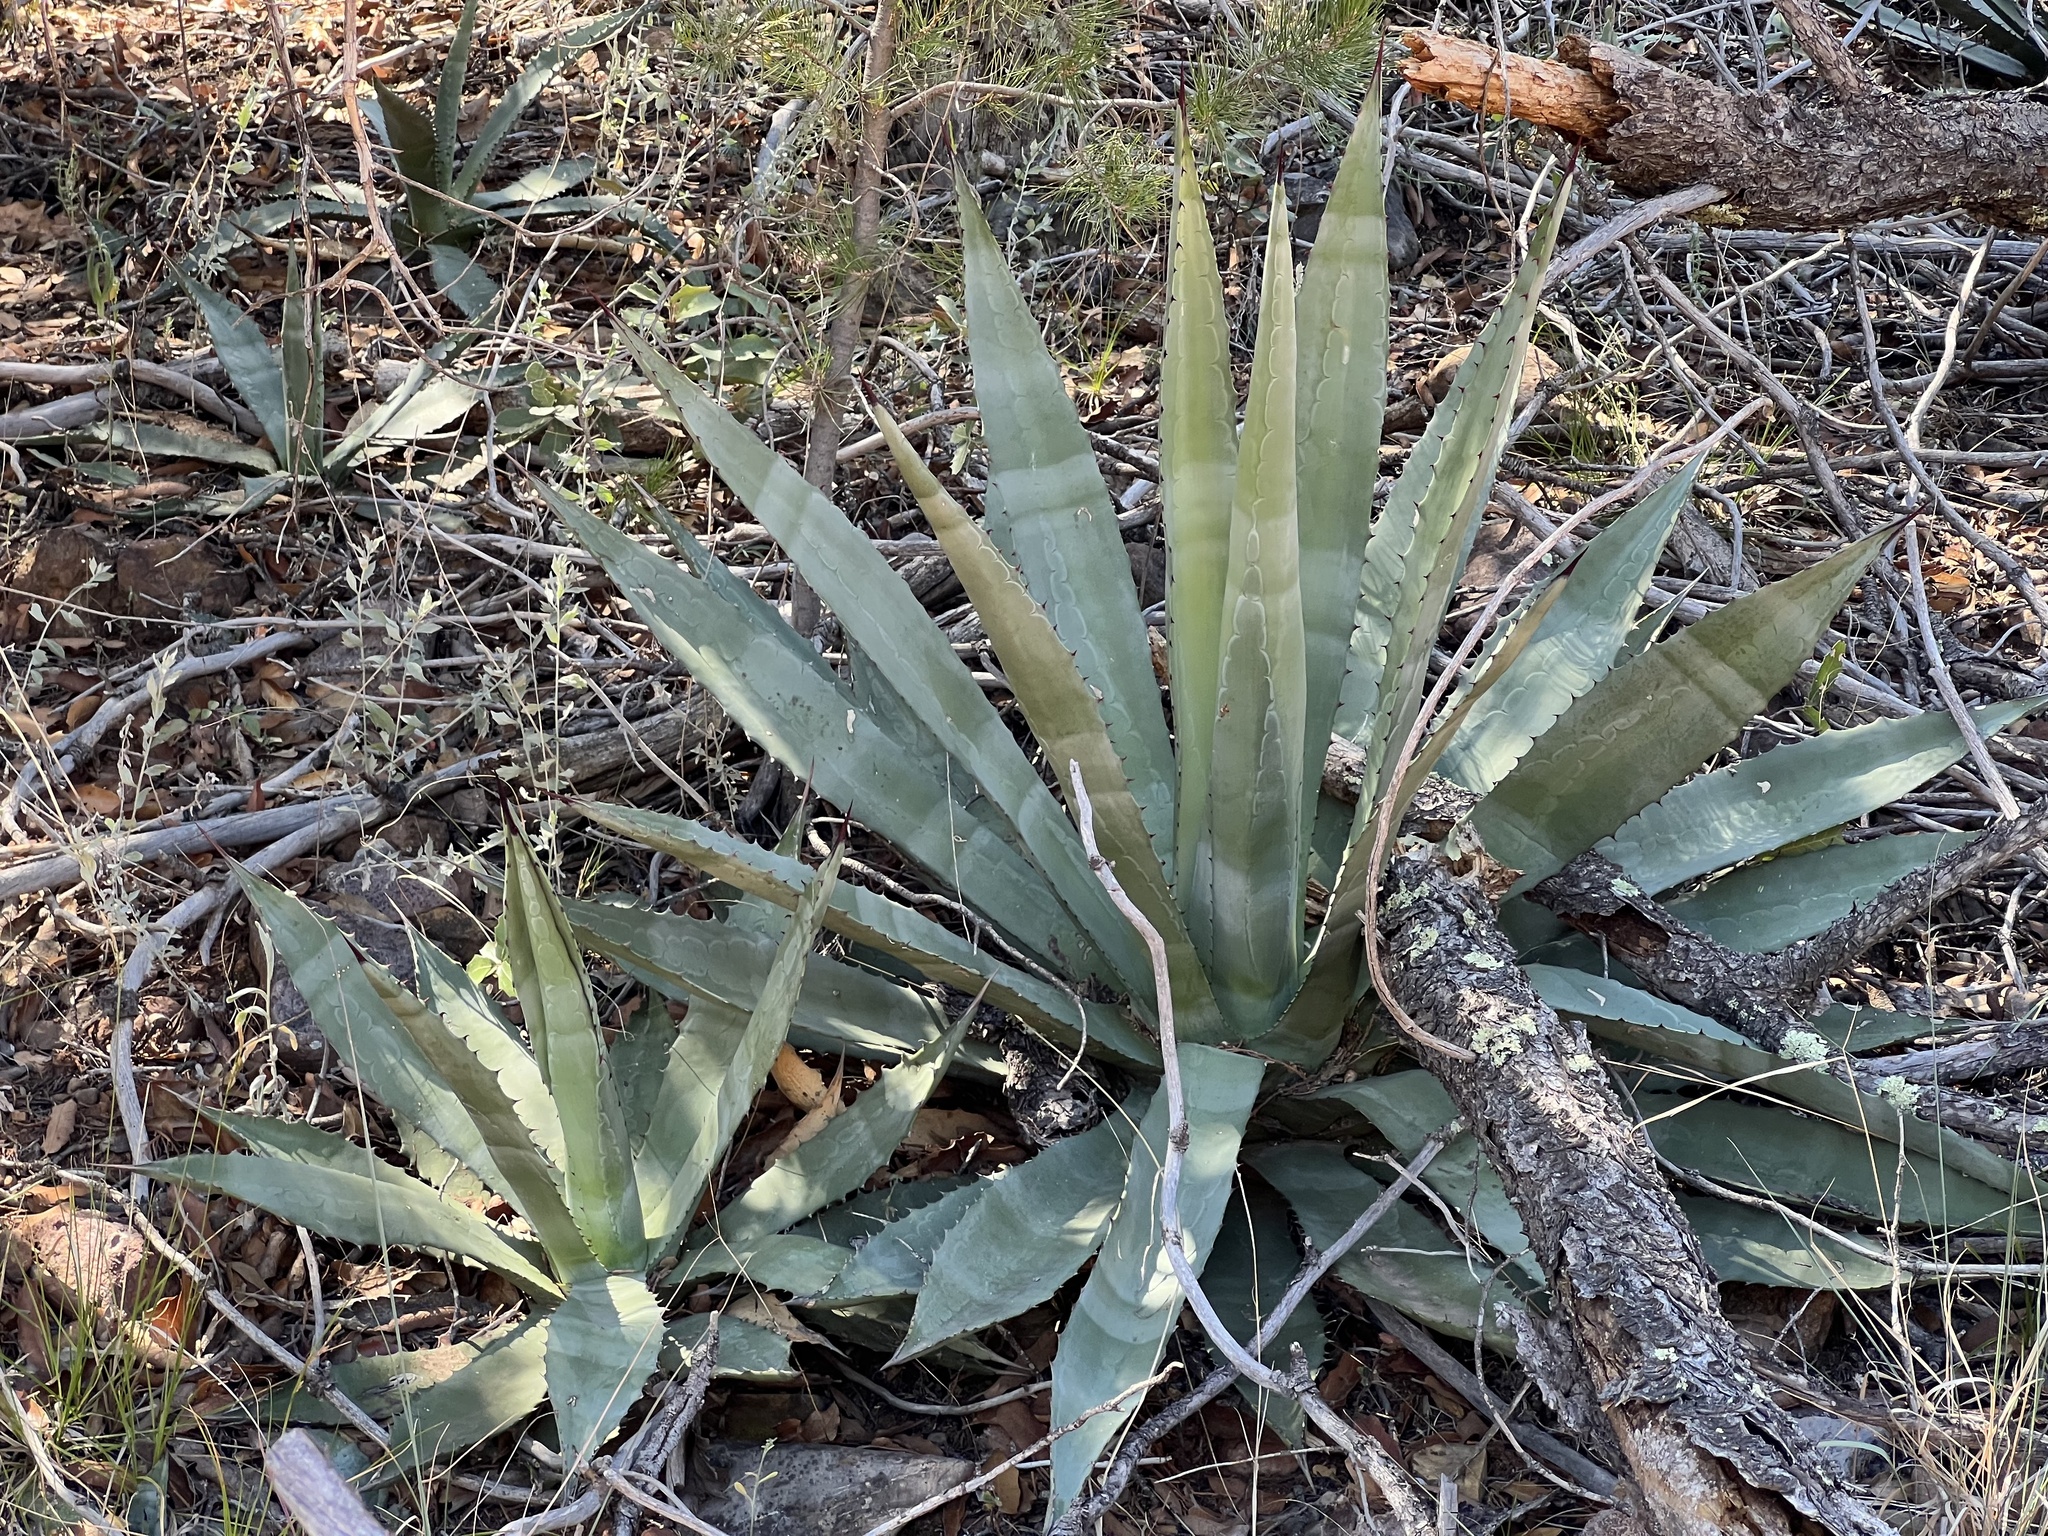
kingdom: Plantae
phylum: Tracheophyta
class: Liliopsida
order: Asparagales
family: Asparagaceae
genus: Agave
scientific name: Agave palmeri
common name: Palmer agave
